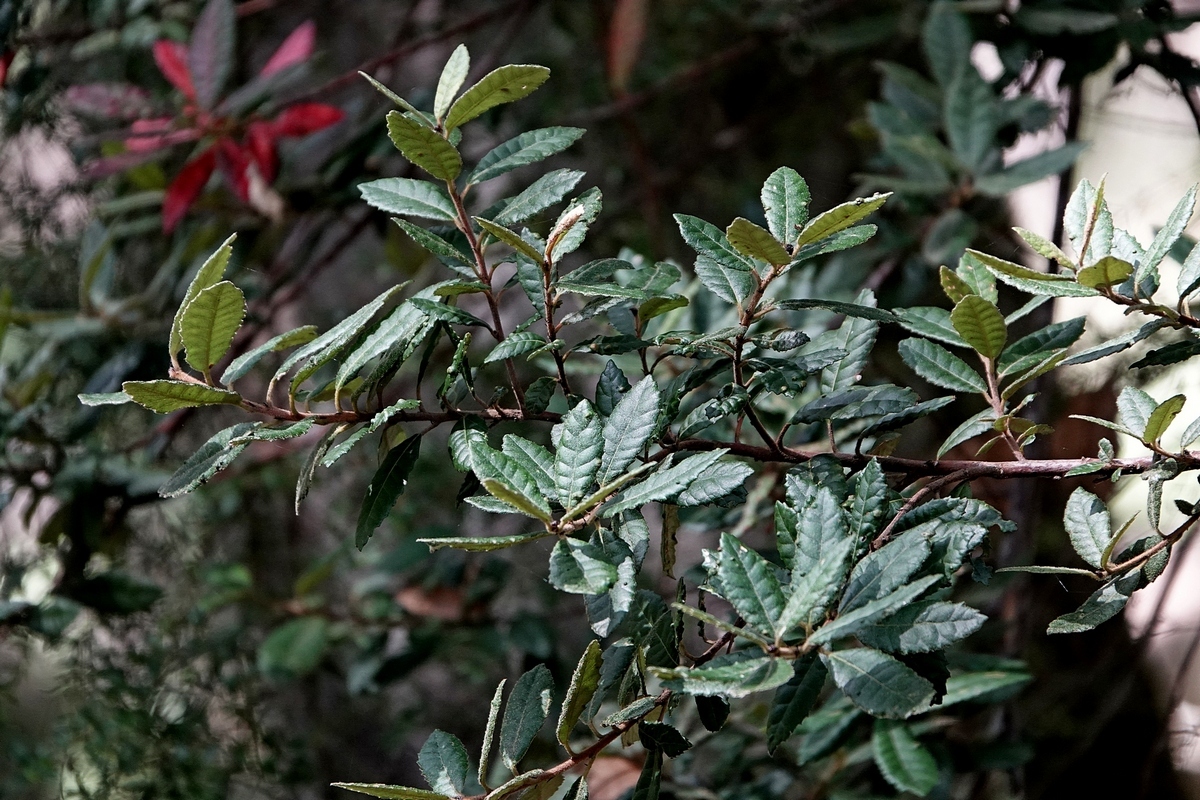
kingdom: Plantae
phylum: Tracheophyta
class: Magnoliopsida
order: Oxalidales
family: Elaeocarpaceae
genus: Elaeocarpus
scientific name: Elaeocarpus holopetalus
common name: Black olive berry
